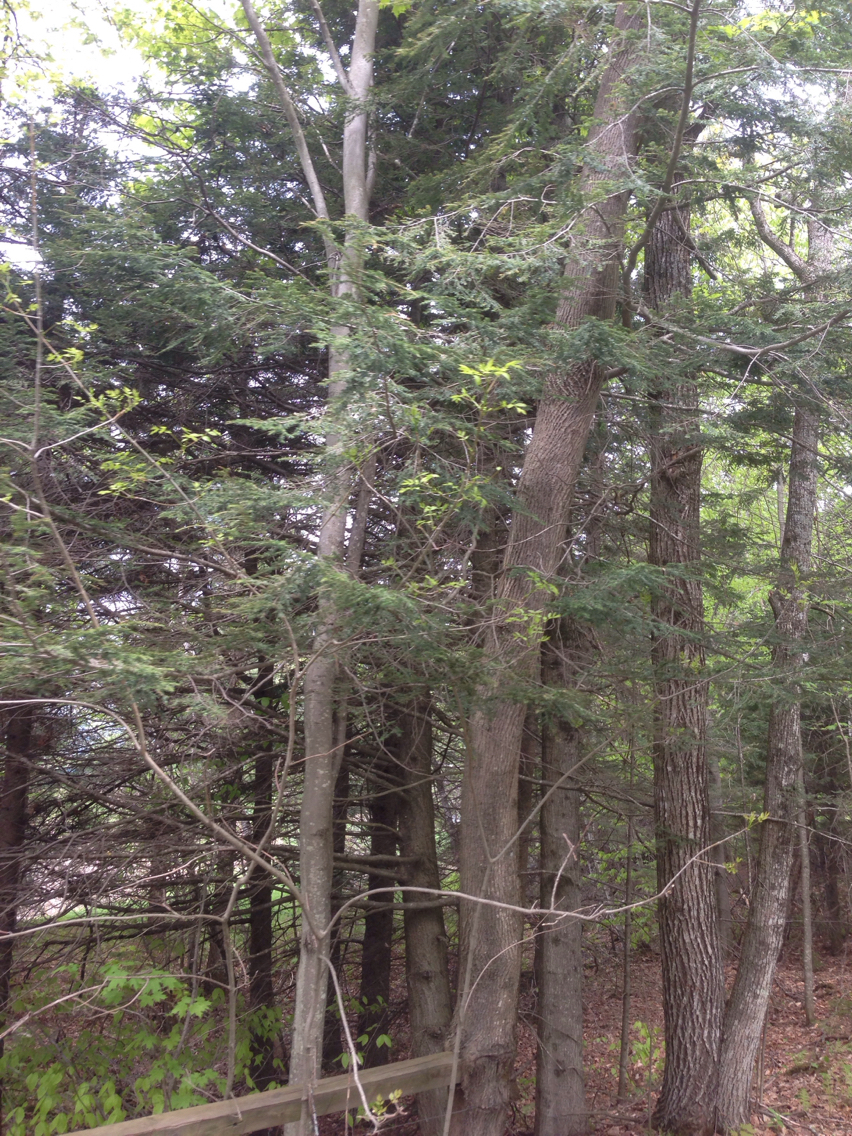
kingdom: Plantae
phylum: Tracheophyta
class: Pinopsida
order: Pinales
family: Pinaceae
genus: Tsuga
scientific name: Tsuga canadensis
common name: Eastern hemlock
